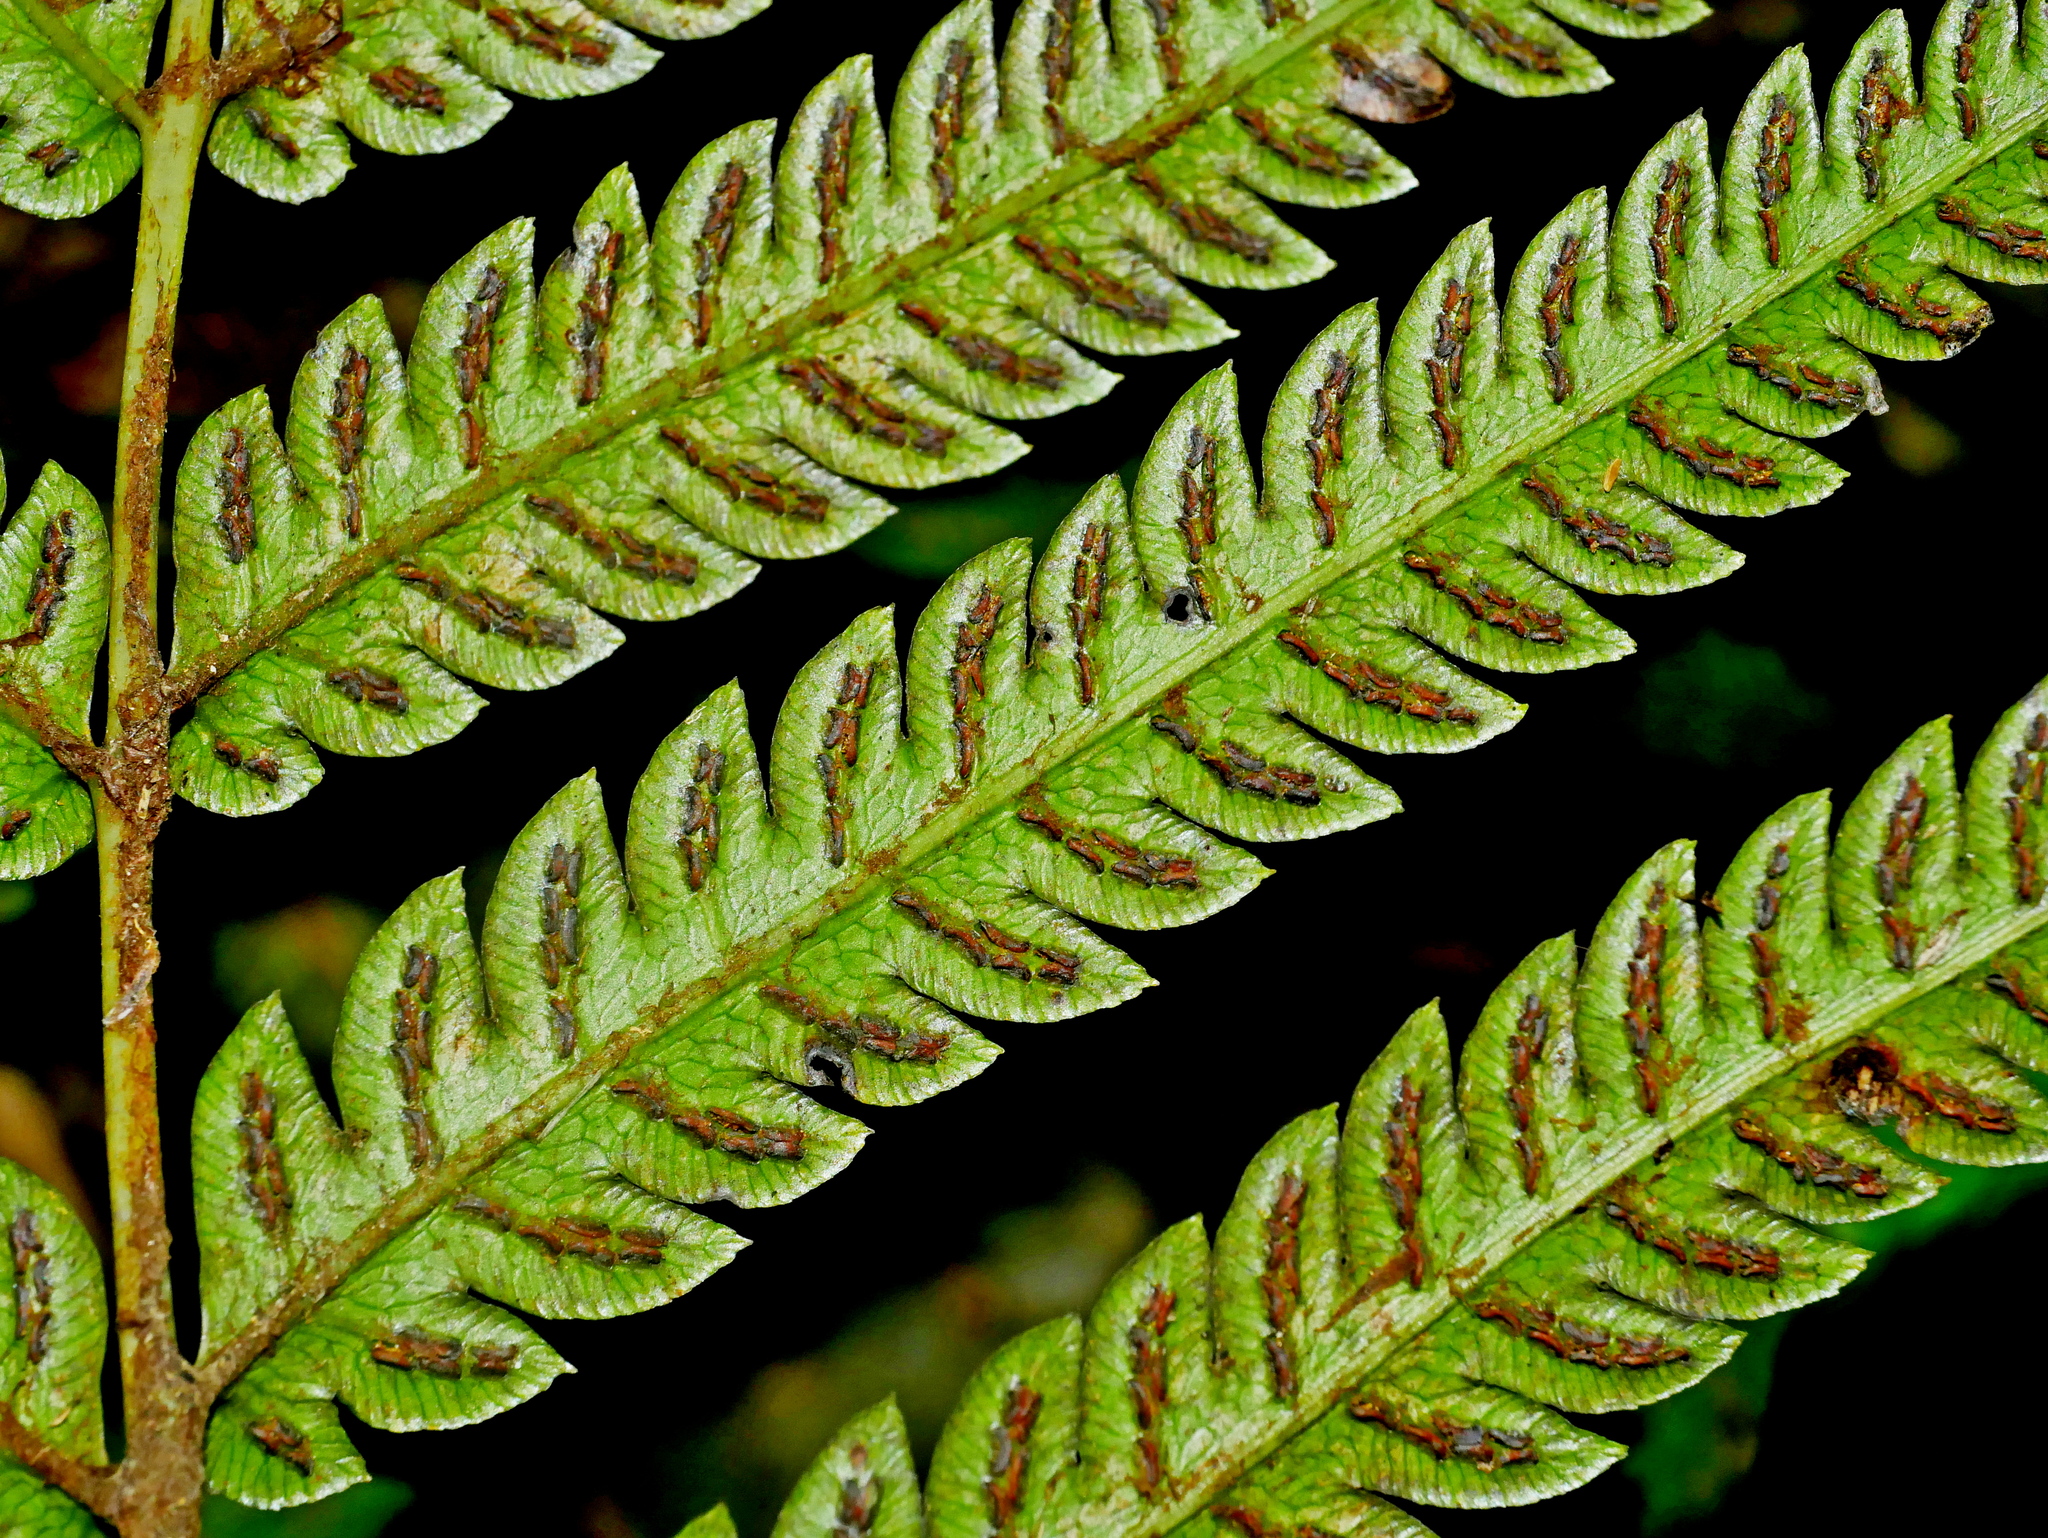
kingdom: Plantae
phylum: Tracheophyta
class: Polypodiopsida
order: Polypodiales
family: Blechnaceae
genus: Woodwardia
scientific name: Woodwardia japonica
